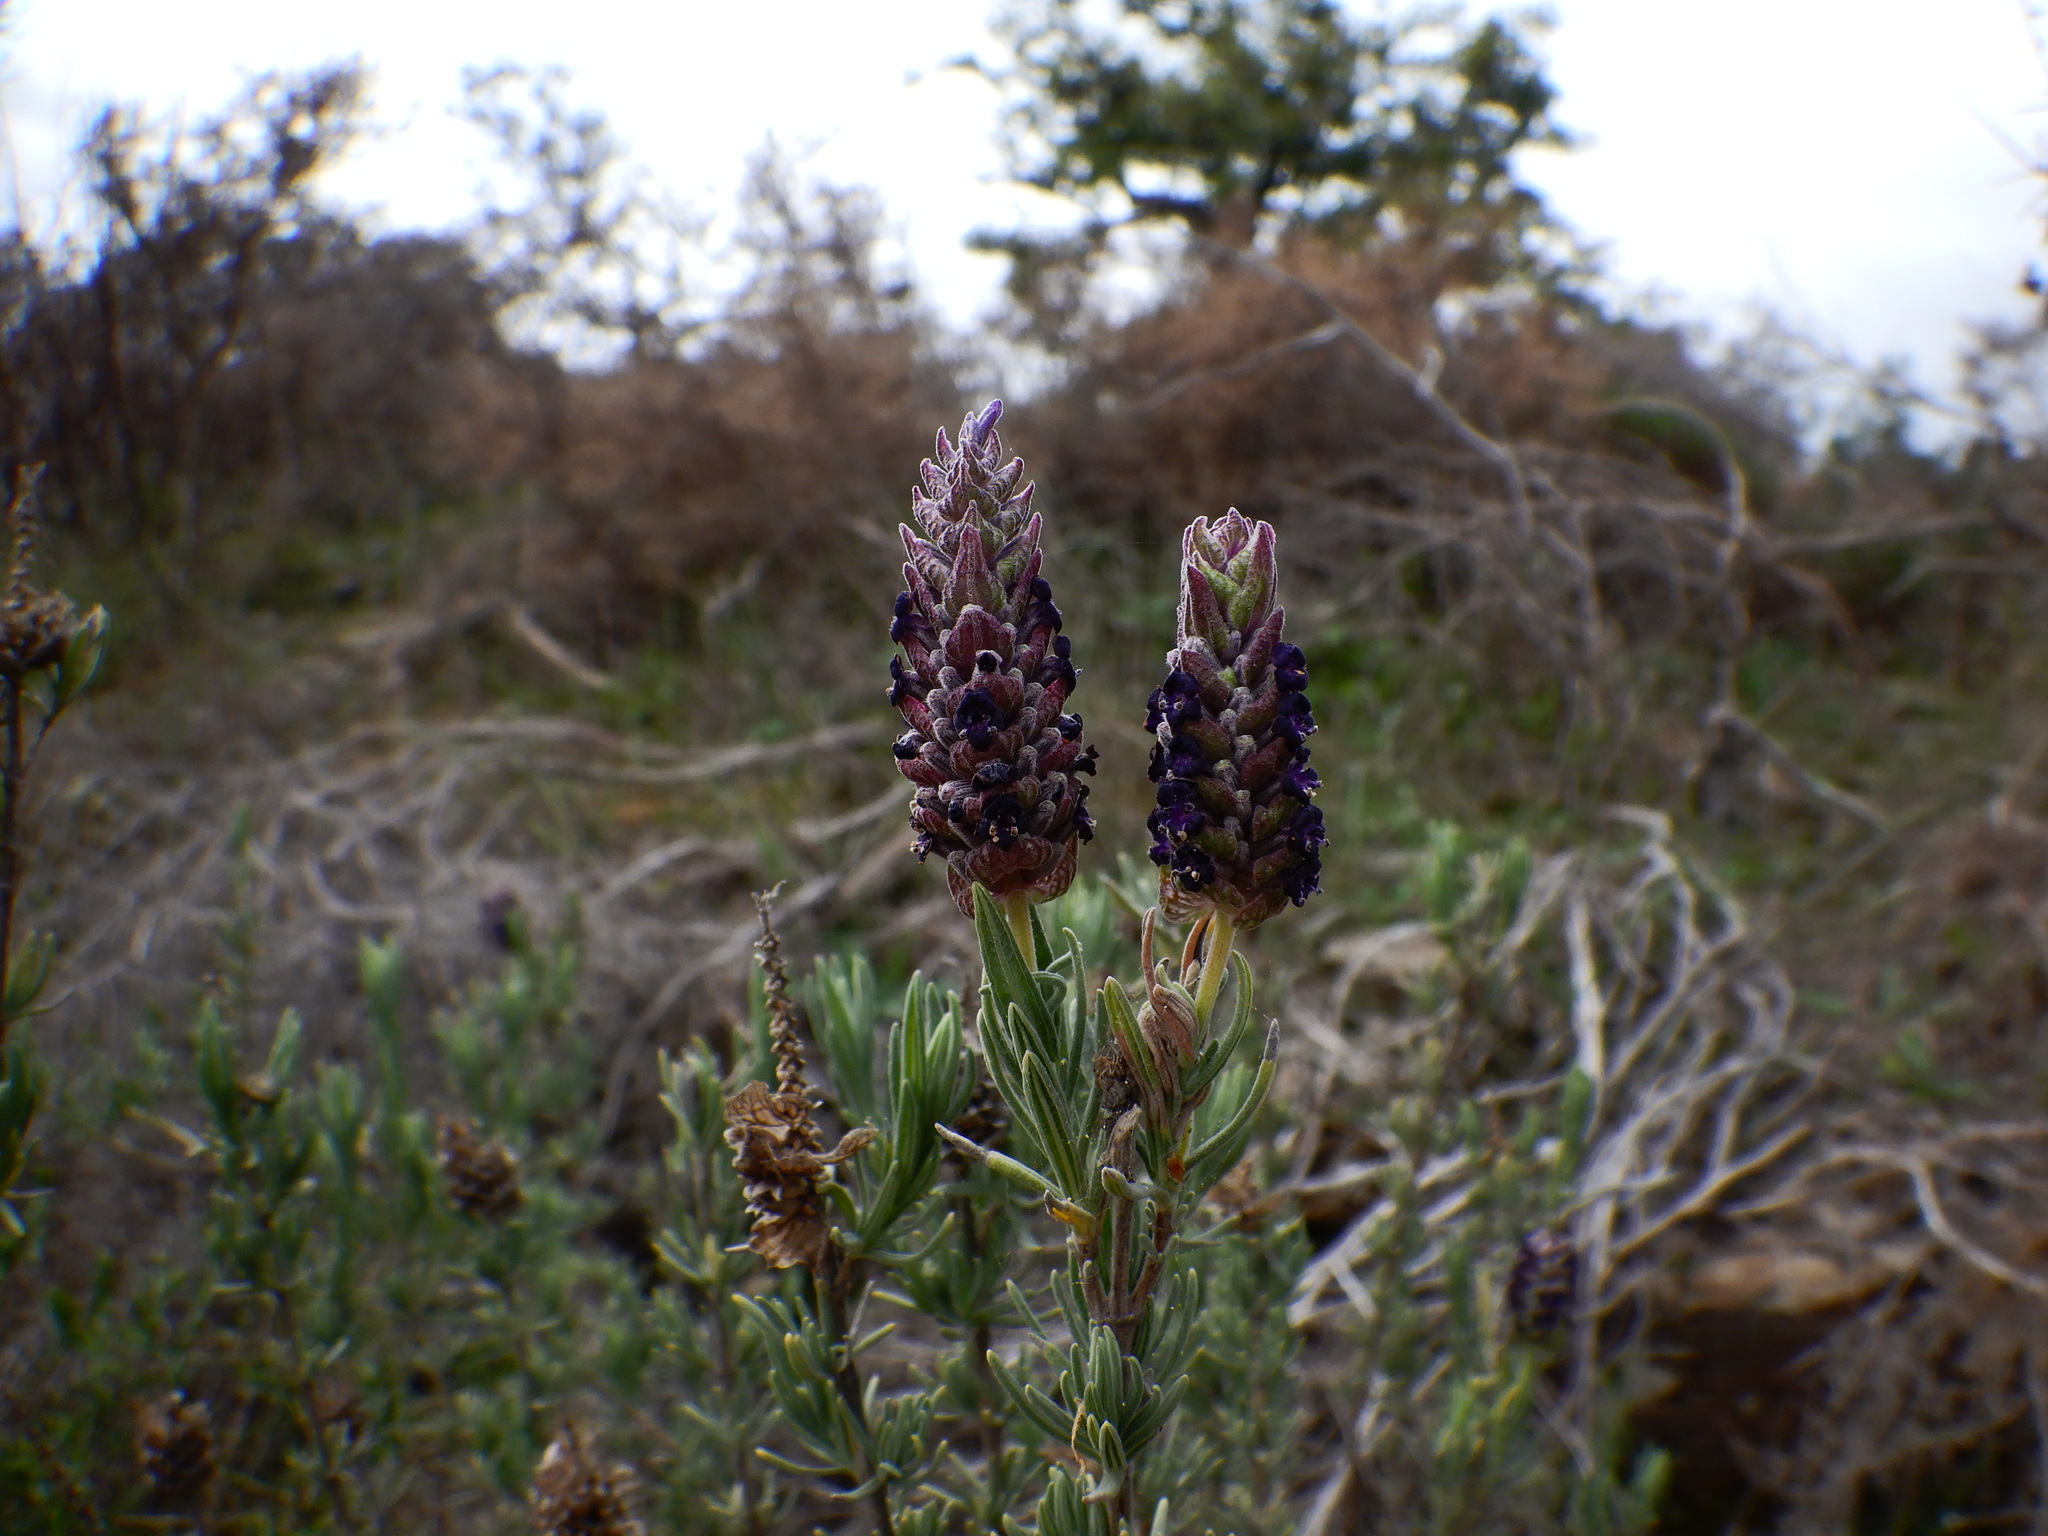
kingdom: Plantae
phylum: Tracheophyta
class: Magnoliopsida
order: Lamiales
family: Lamiaceae
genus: Lavandula
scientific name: Lavandula stoechas
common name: French lavender
